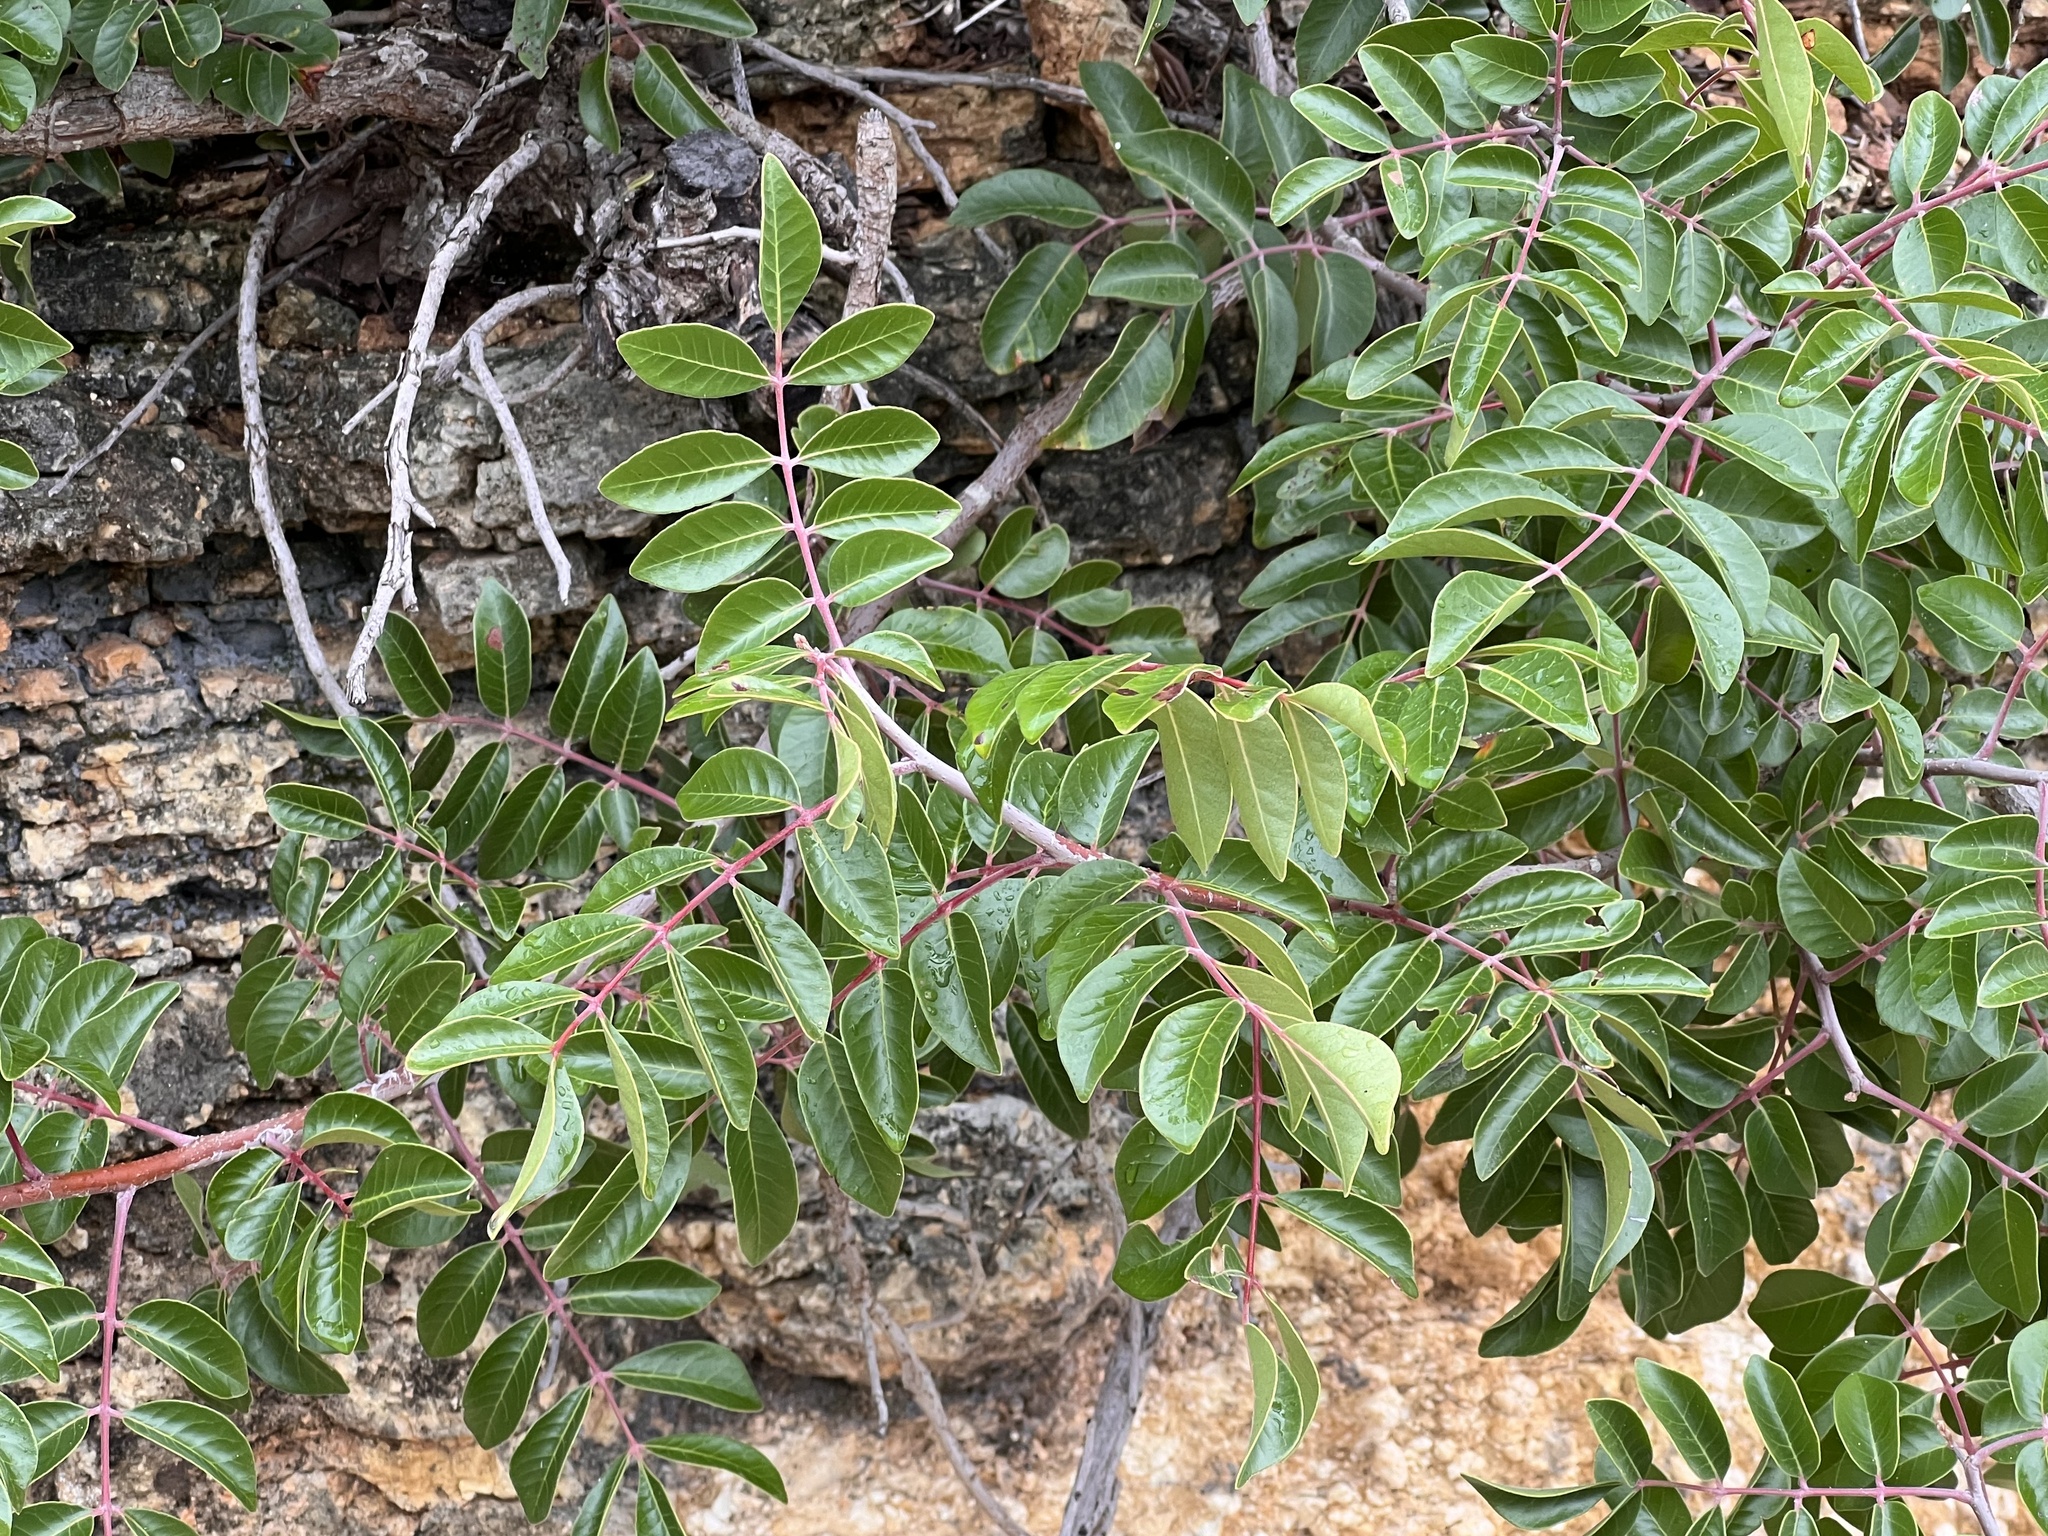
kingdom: Plantae
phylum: Tracheophyta
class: Magnoliopsida
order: Sapindales
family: Anacardiaceae
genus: Rhus
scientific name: Rhus virens
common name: Evergreen sumac
